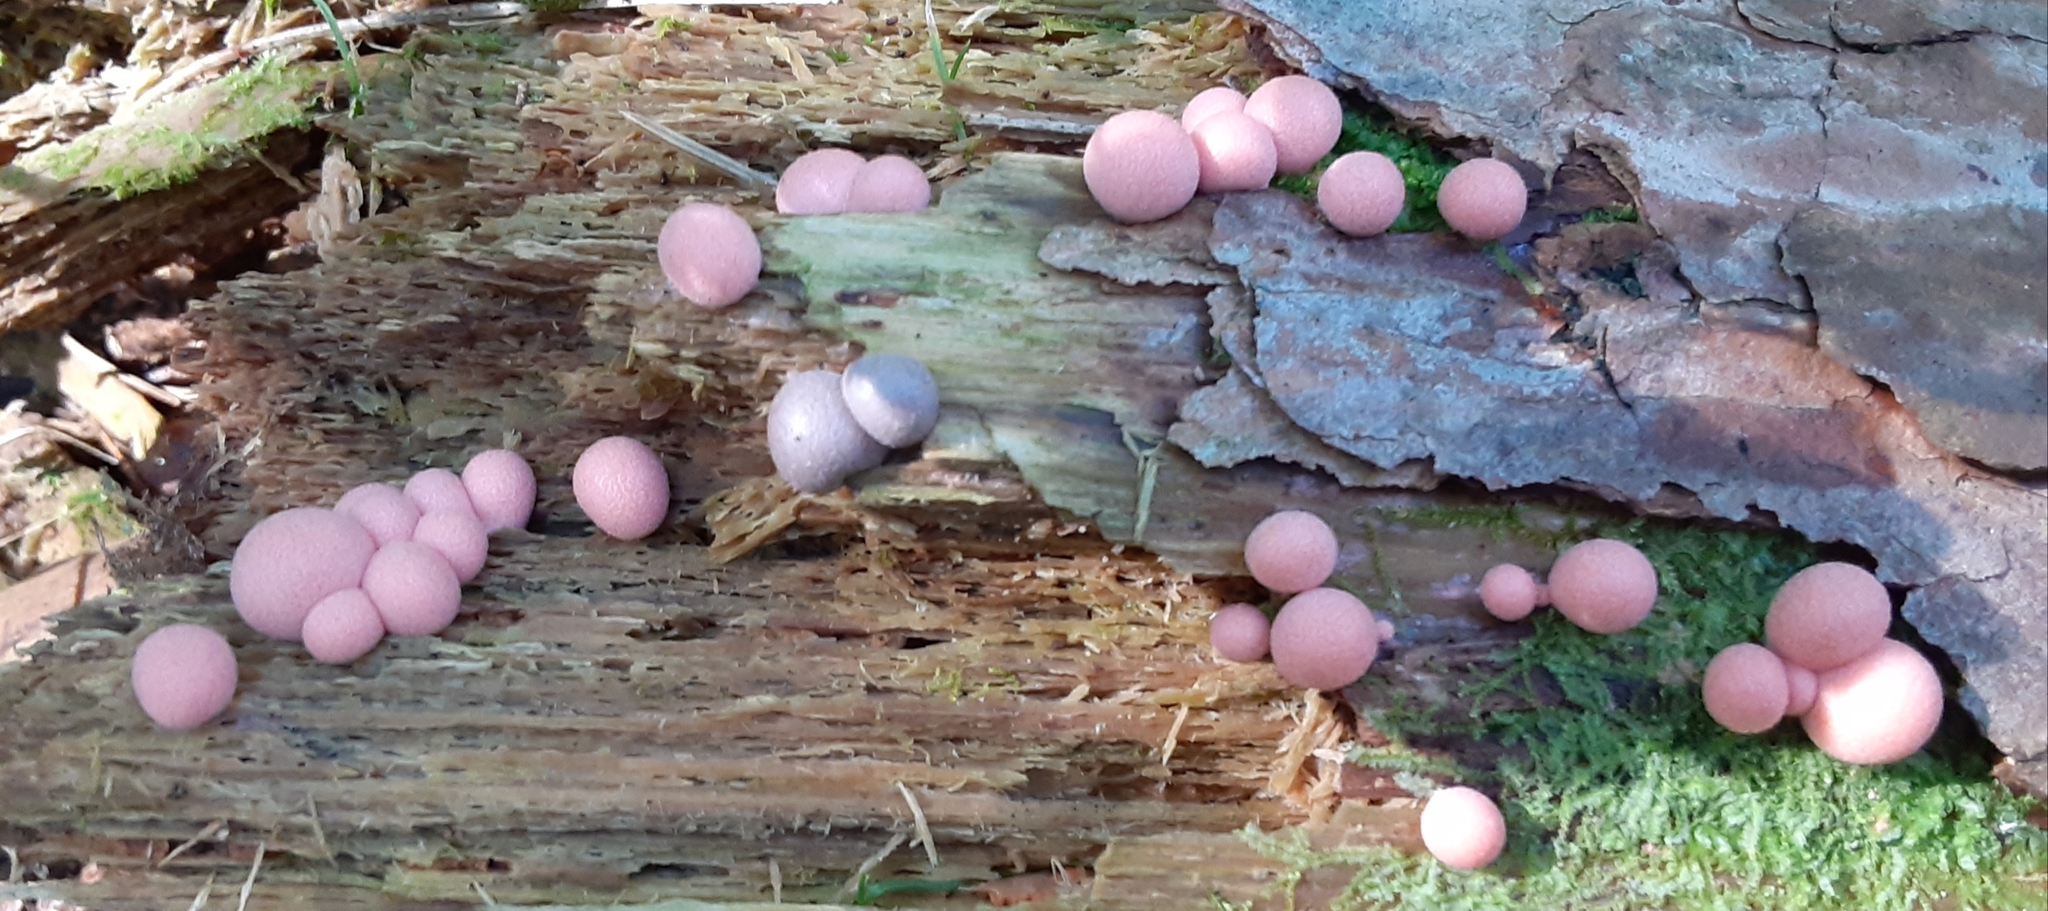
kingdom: Protozoa
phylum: Mycetozoa
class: Myxomycetes
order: Cribrariales
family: Tubiferaceae
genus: Lycogala
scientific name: Lycogala epidendrum
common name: Wolf's milk
